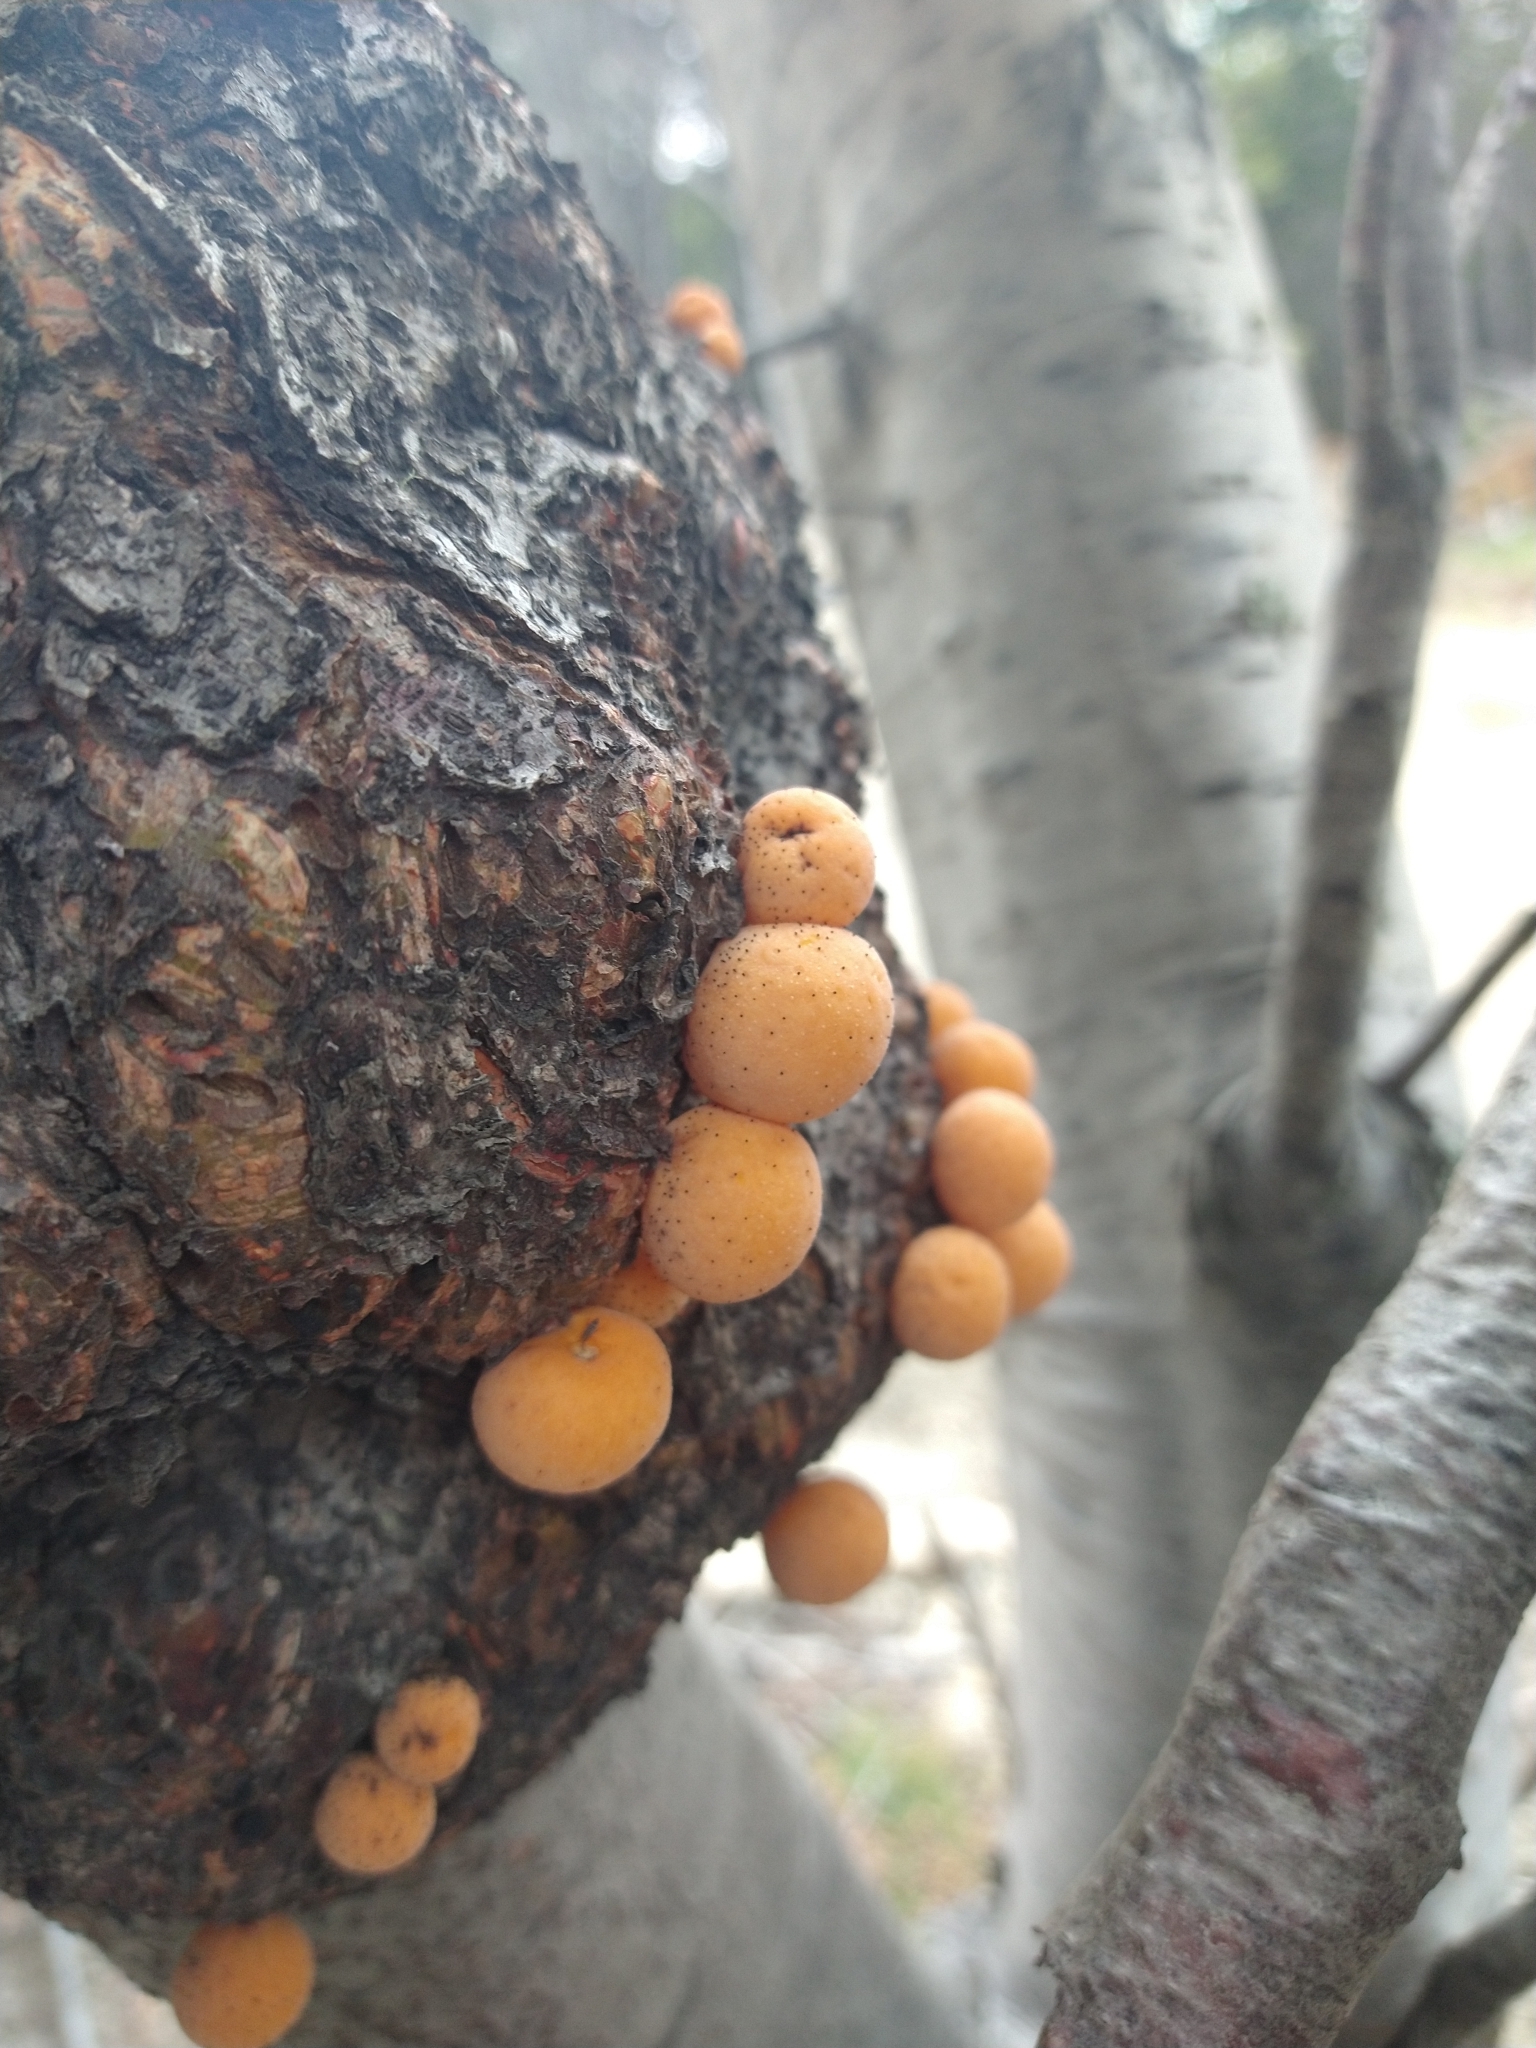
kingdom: Fungi
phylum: Ascomycota
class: Leotiomycetes
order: Cyttariales
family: Cyttariaceae
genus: Cyttaria
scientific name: Cyttaria darwinii
